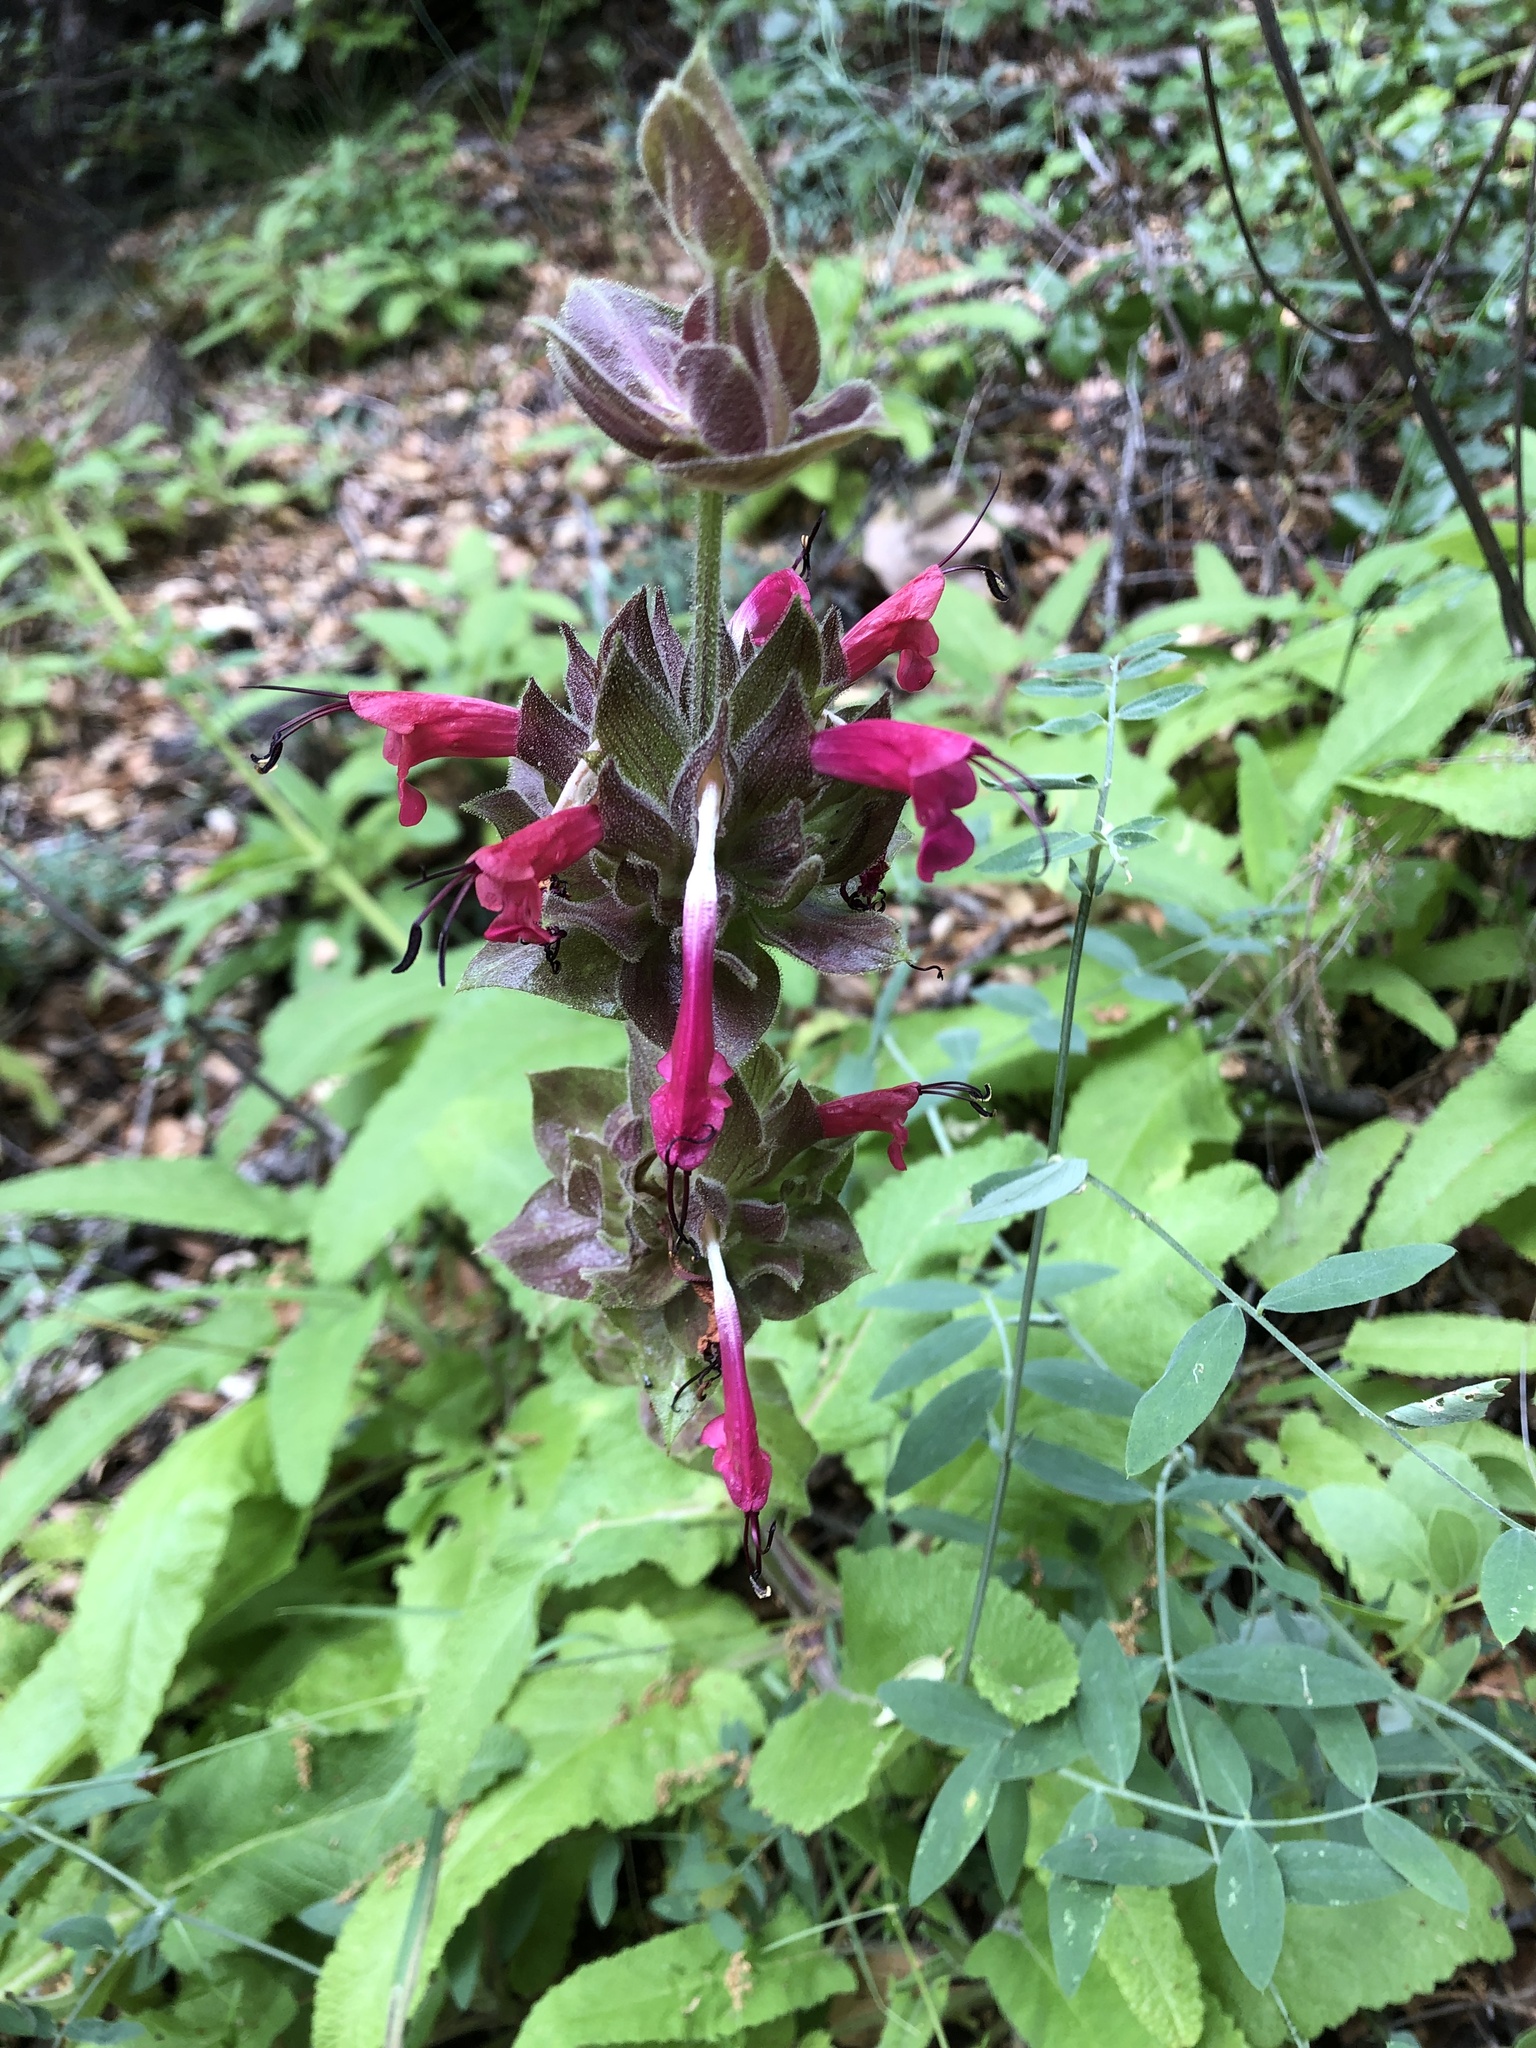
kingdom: Plantae
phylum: Tracheophyta
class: Magnoliopsida
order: Lamiales
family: Lamiaceae
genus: Salvia
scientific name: Salvia spathacea
